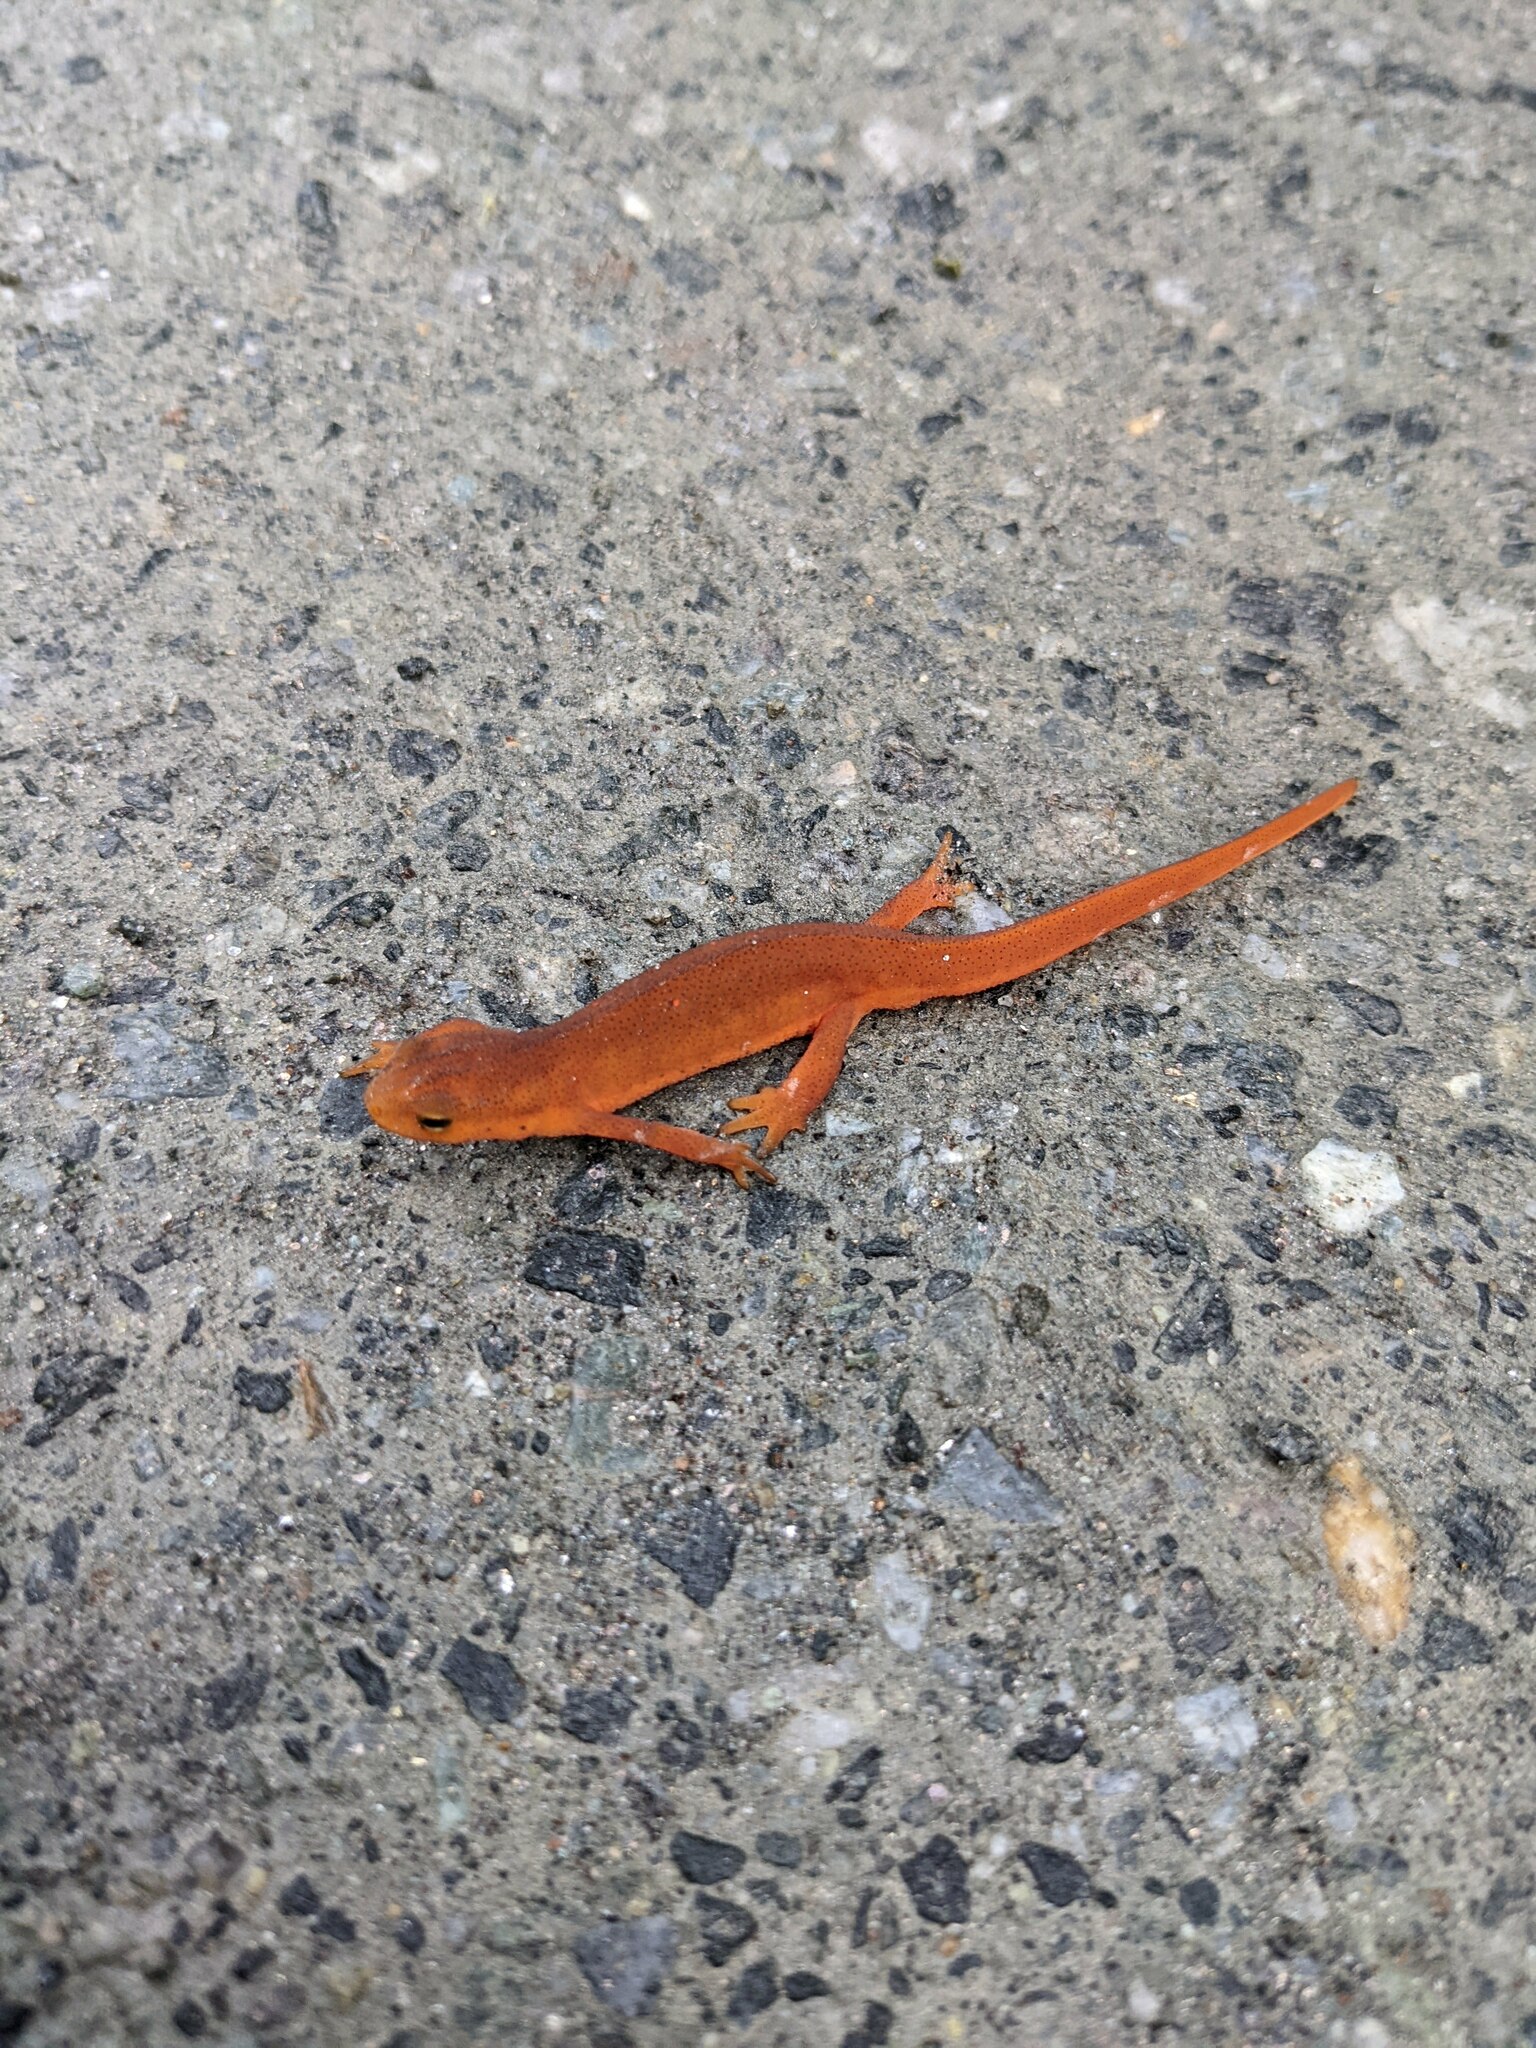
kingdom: Animalia
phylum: Chordata
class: Amphibia
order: Caudata
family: Salamandridae
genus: Notophthalmus
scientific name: Notophthalmus viridescens
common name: Eastern newt
